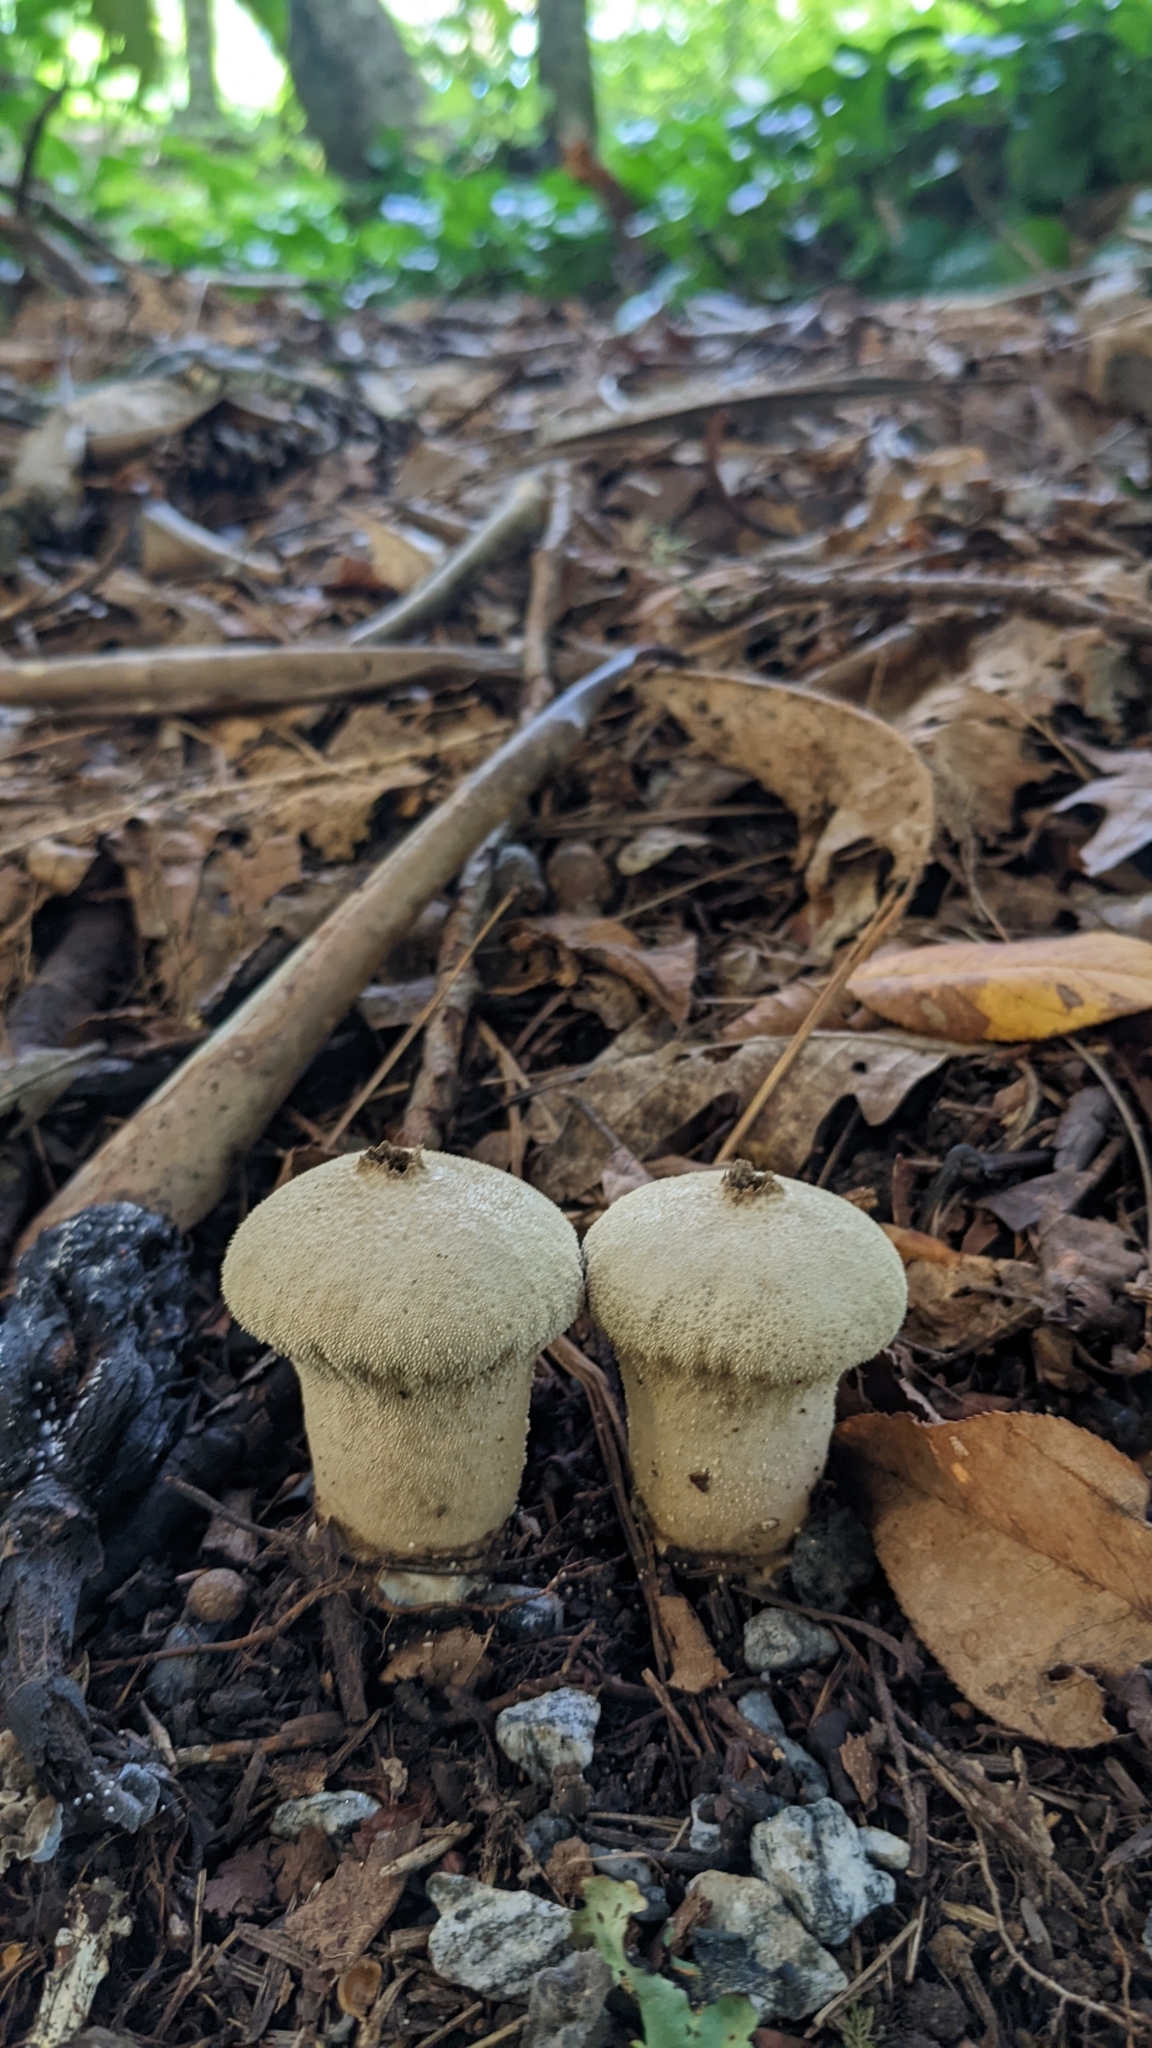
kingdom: Fungi
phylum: Basidiomycota
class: Agaricomycetes
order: Agaricales
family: Lycoperdaceae
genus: Lycoperdon
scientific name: Lycoperdon perlatum
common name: Common puffball
